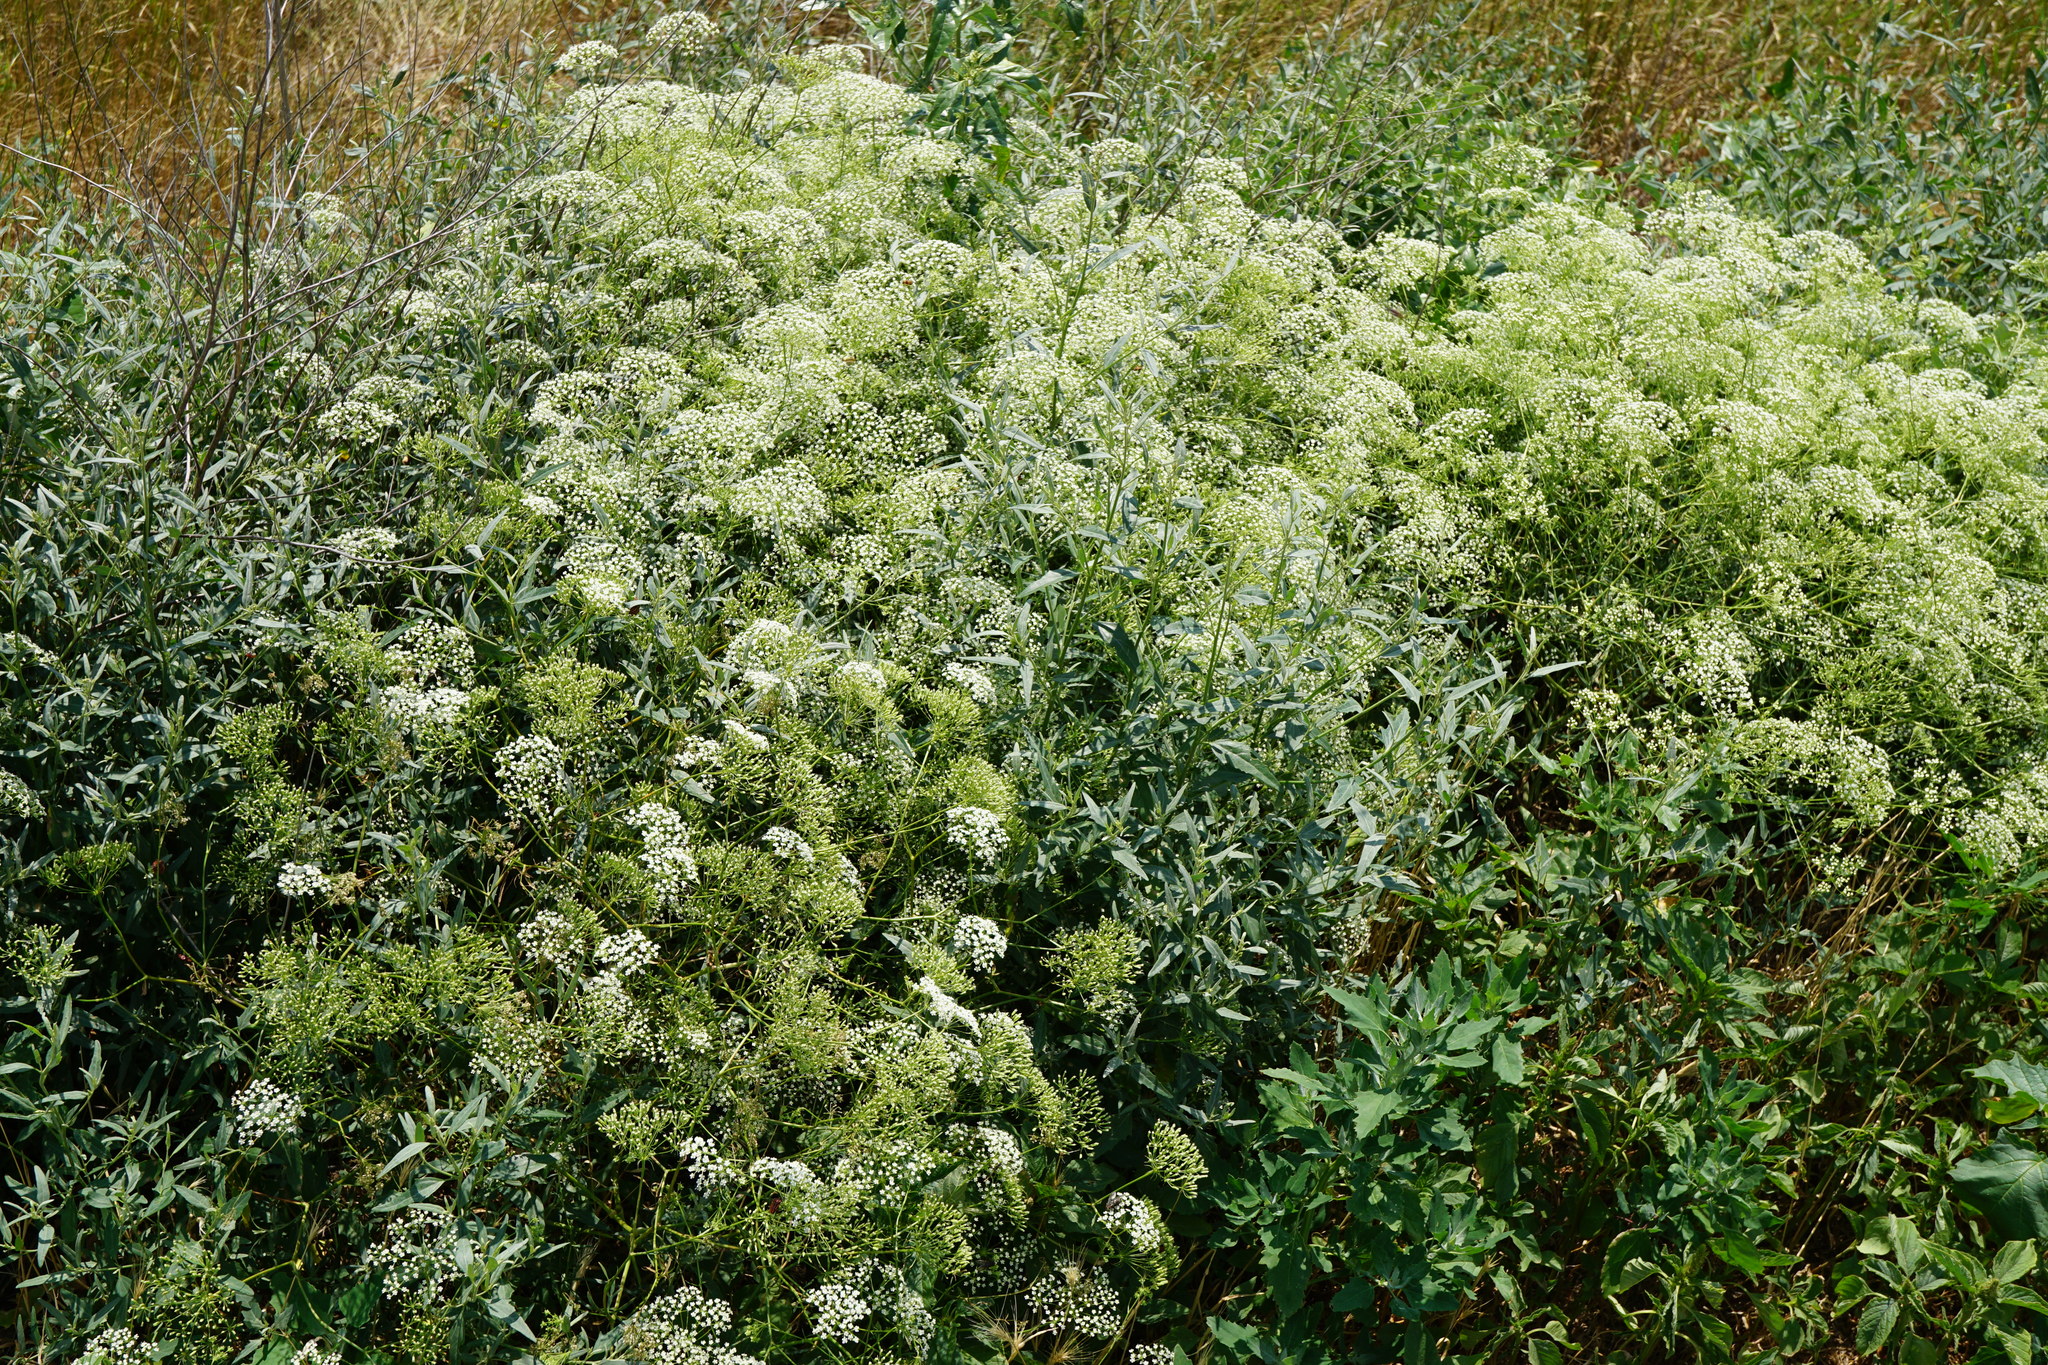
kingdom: Plantae
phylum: Tracheophyta
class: Magnoliopsida
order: Apiales
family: Apiaceae
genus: Falcaria
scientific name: Falcaria vulgaris
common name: Longleaf
